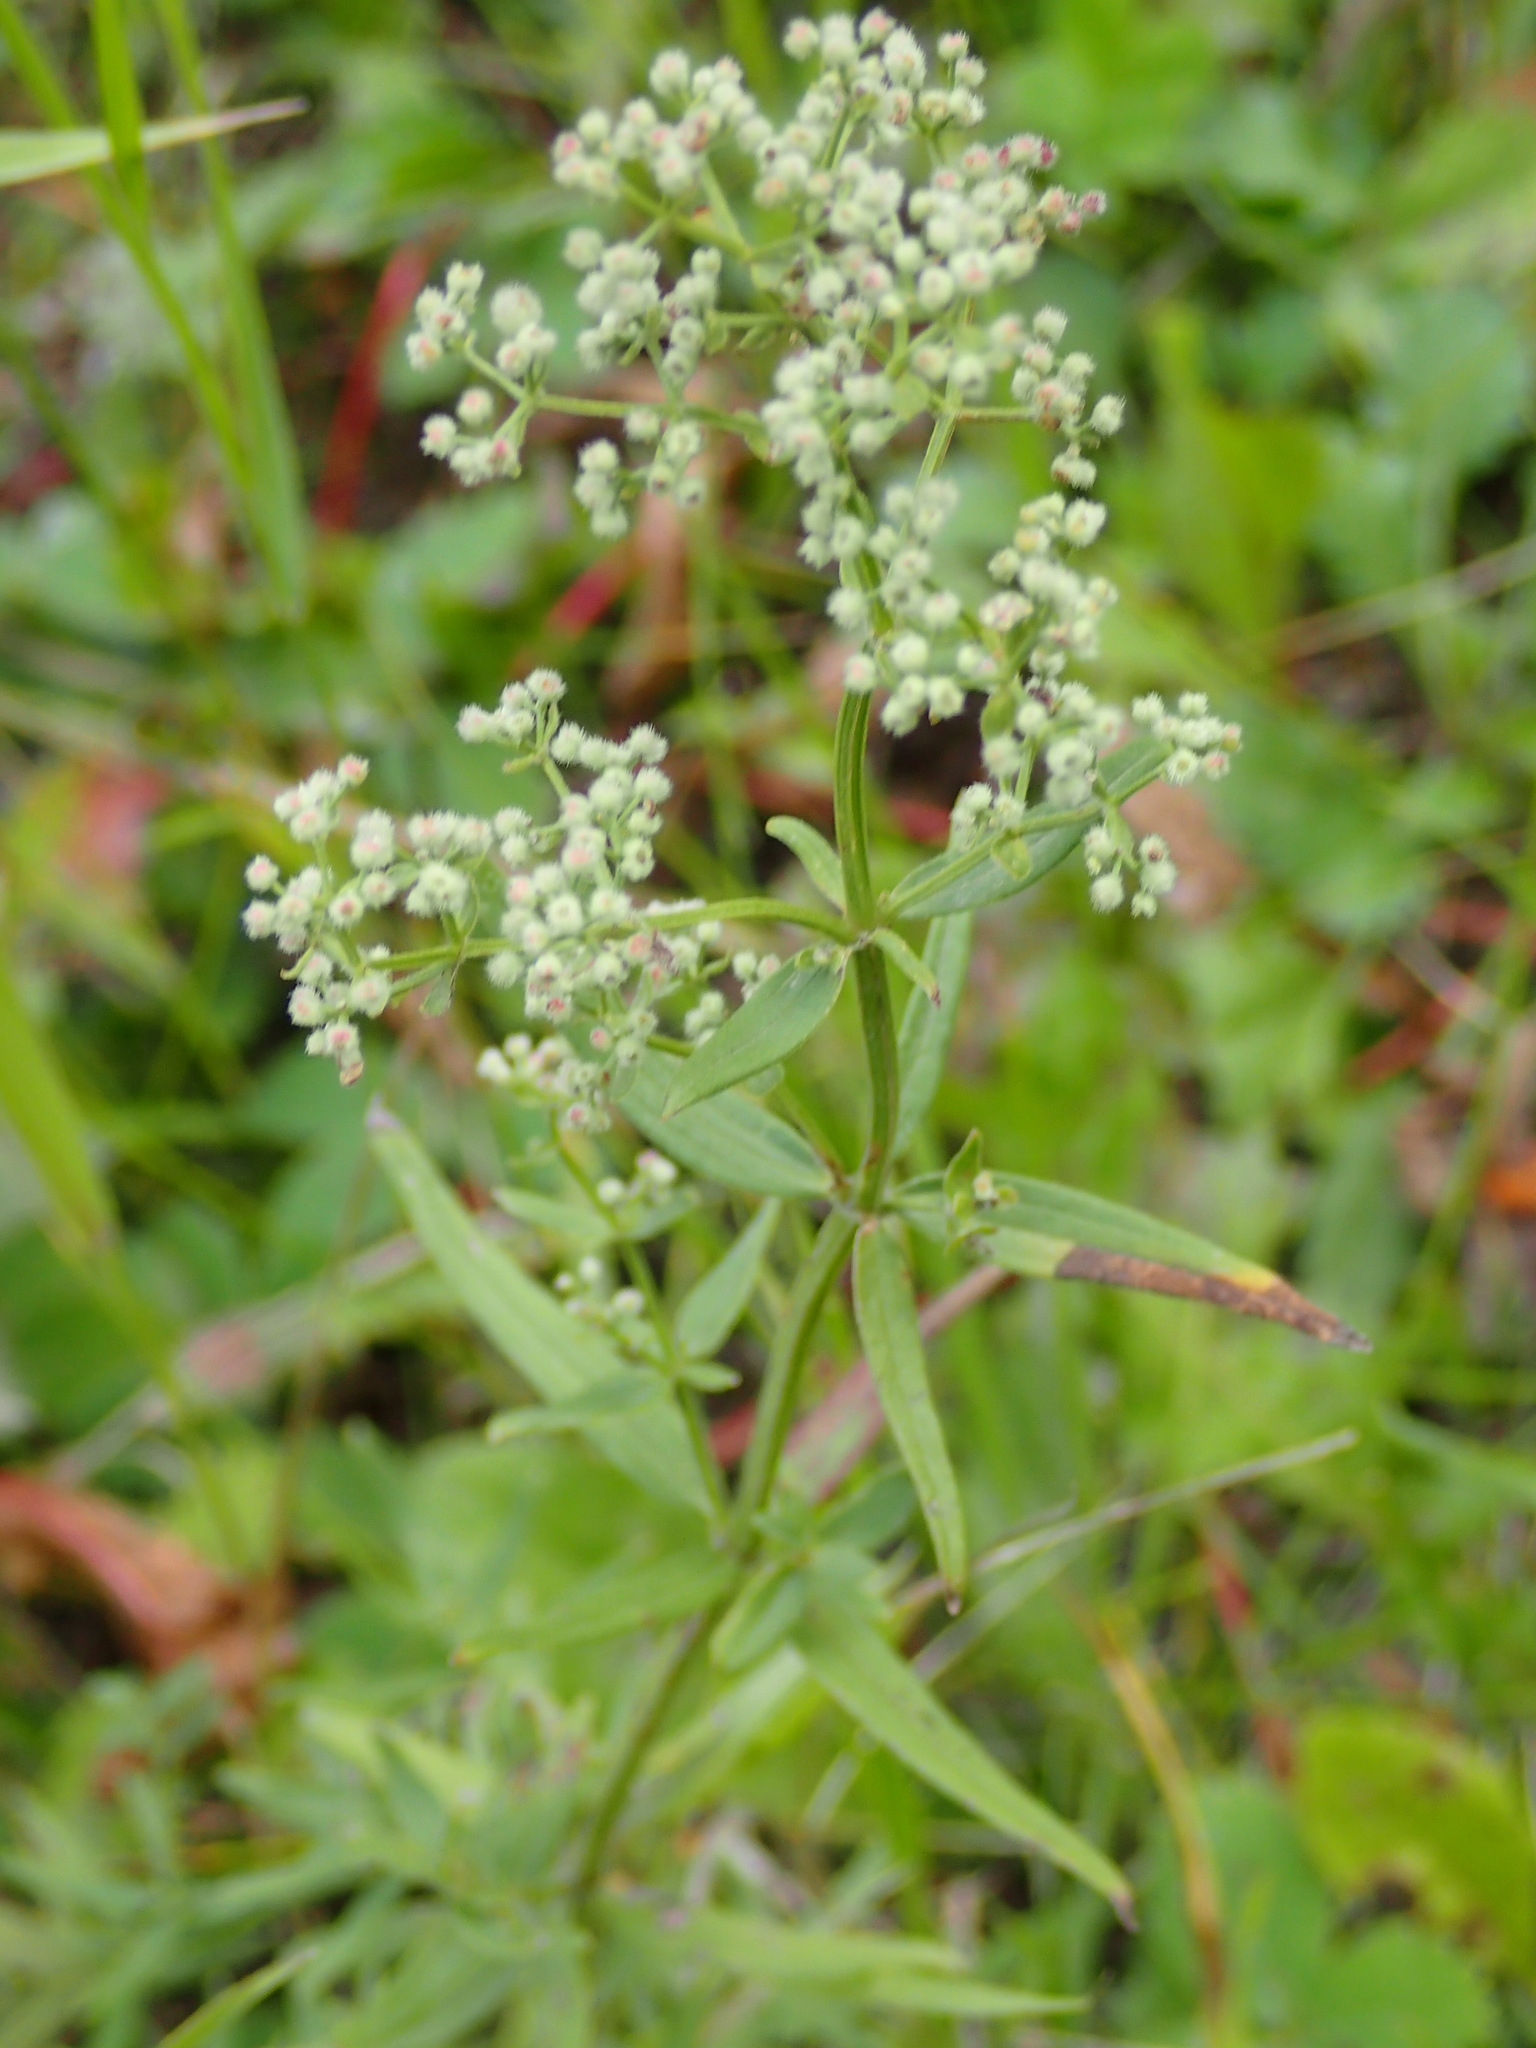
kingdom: Plantae
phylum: Tracheophyta
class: Magnoliopsida
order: Gentianales
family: Rubiaceae
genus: Galium
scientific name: Galium boreale
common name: Northern bedstraw
